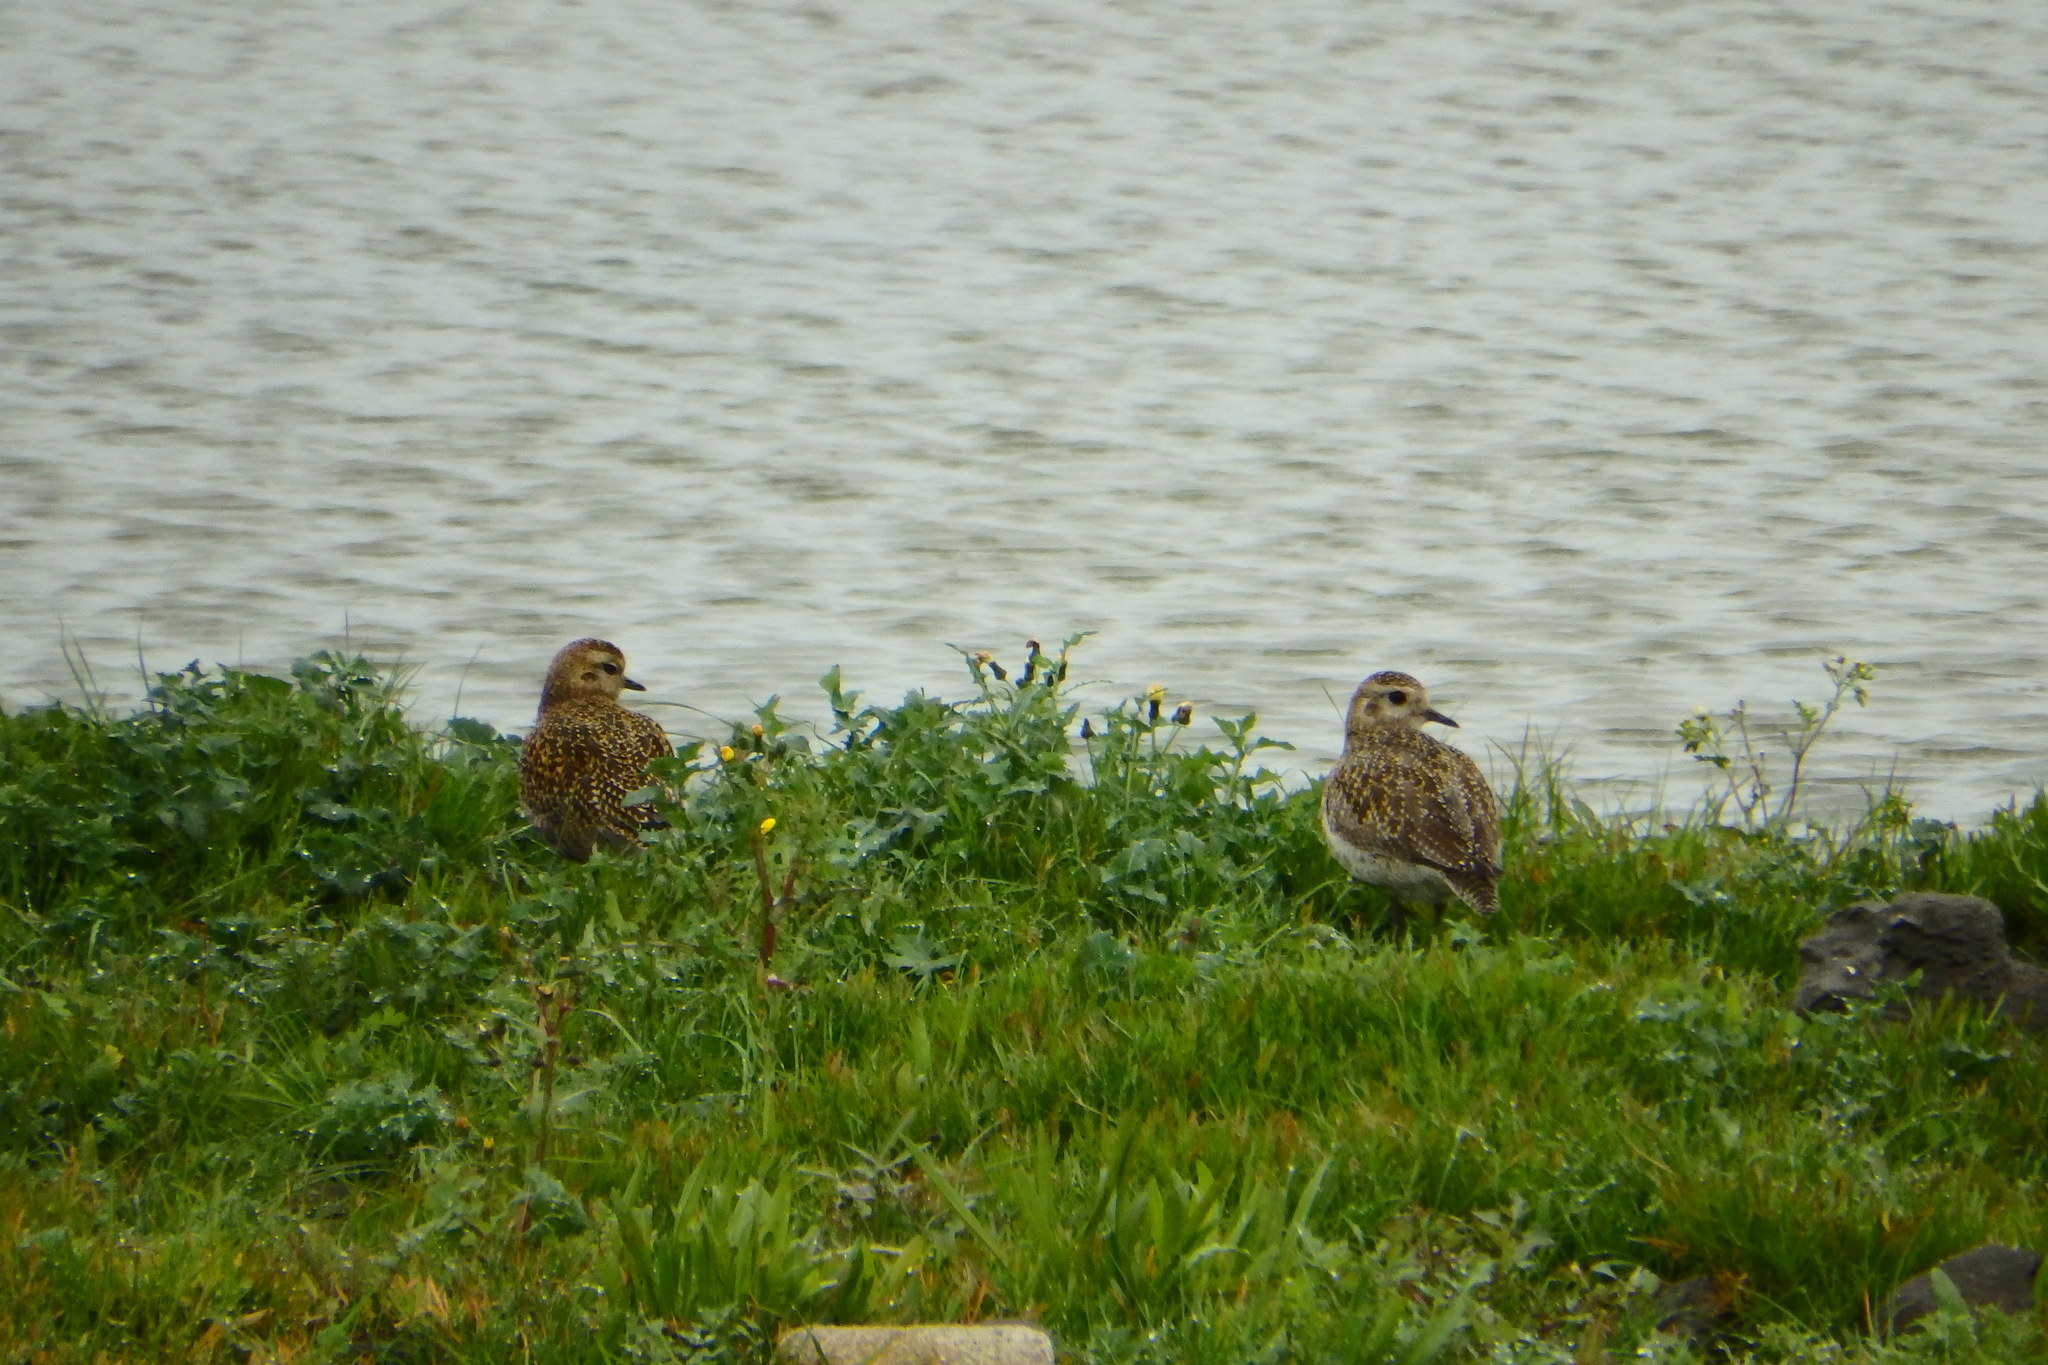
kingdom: Animalia
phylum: Chordata
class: Aves
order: Charadriiformes
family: Charadriidae
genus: Pluvialis
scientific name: Pluvialis apricaria
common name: European golden plover
